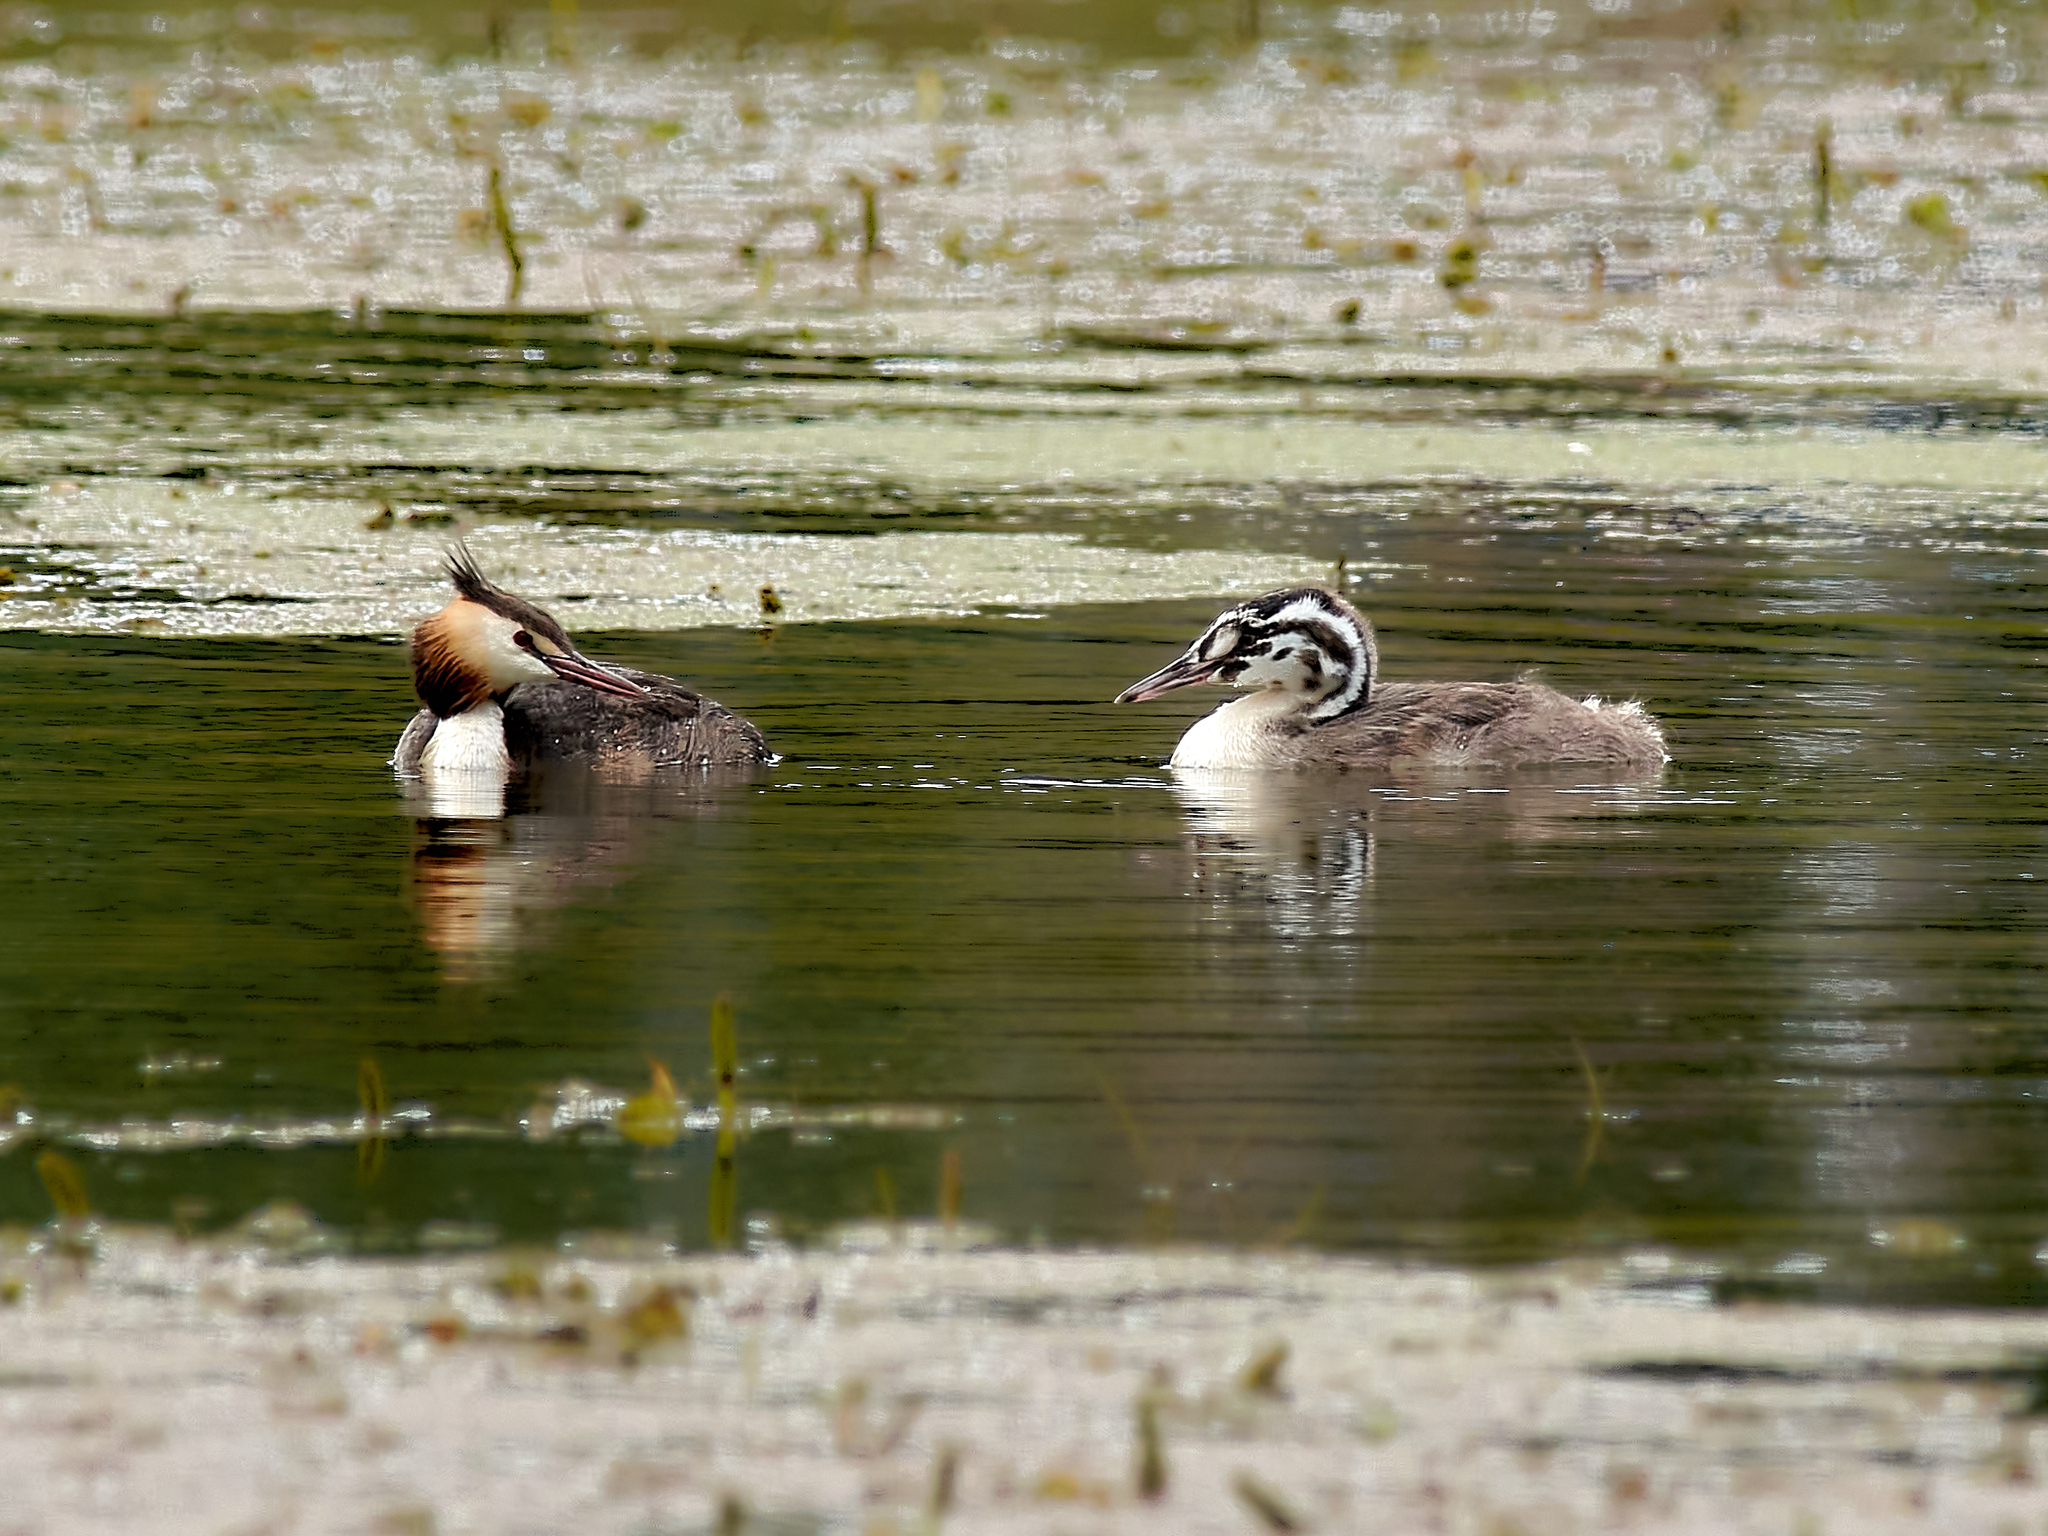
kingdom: Animalia
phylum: Chordata
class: Aves
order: Podicipediformes
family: Podicipedidae
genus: Podiceps
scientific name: Podiceps cristatus
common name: Great crested grebe
